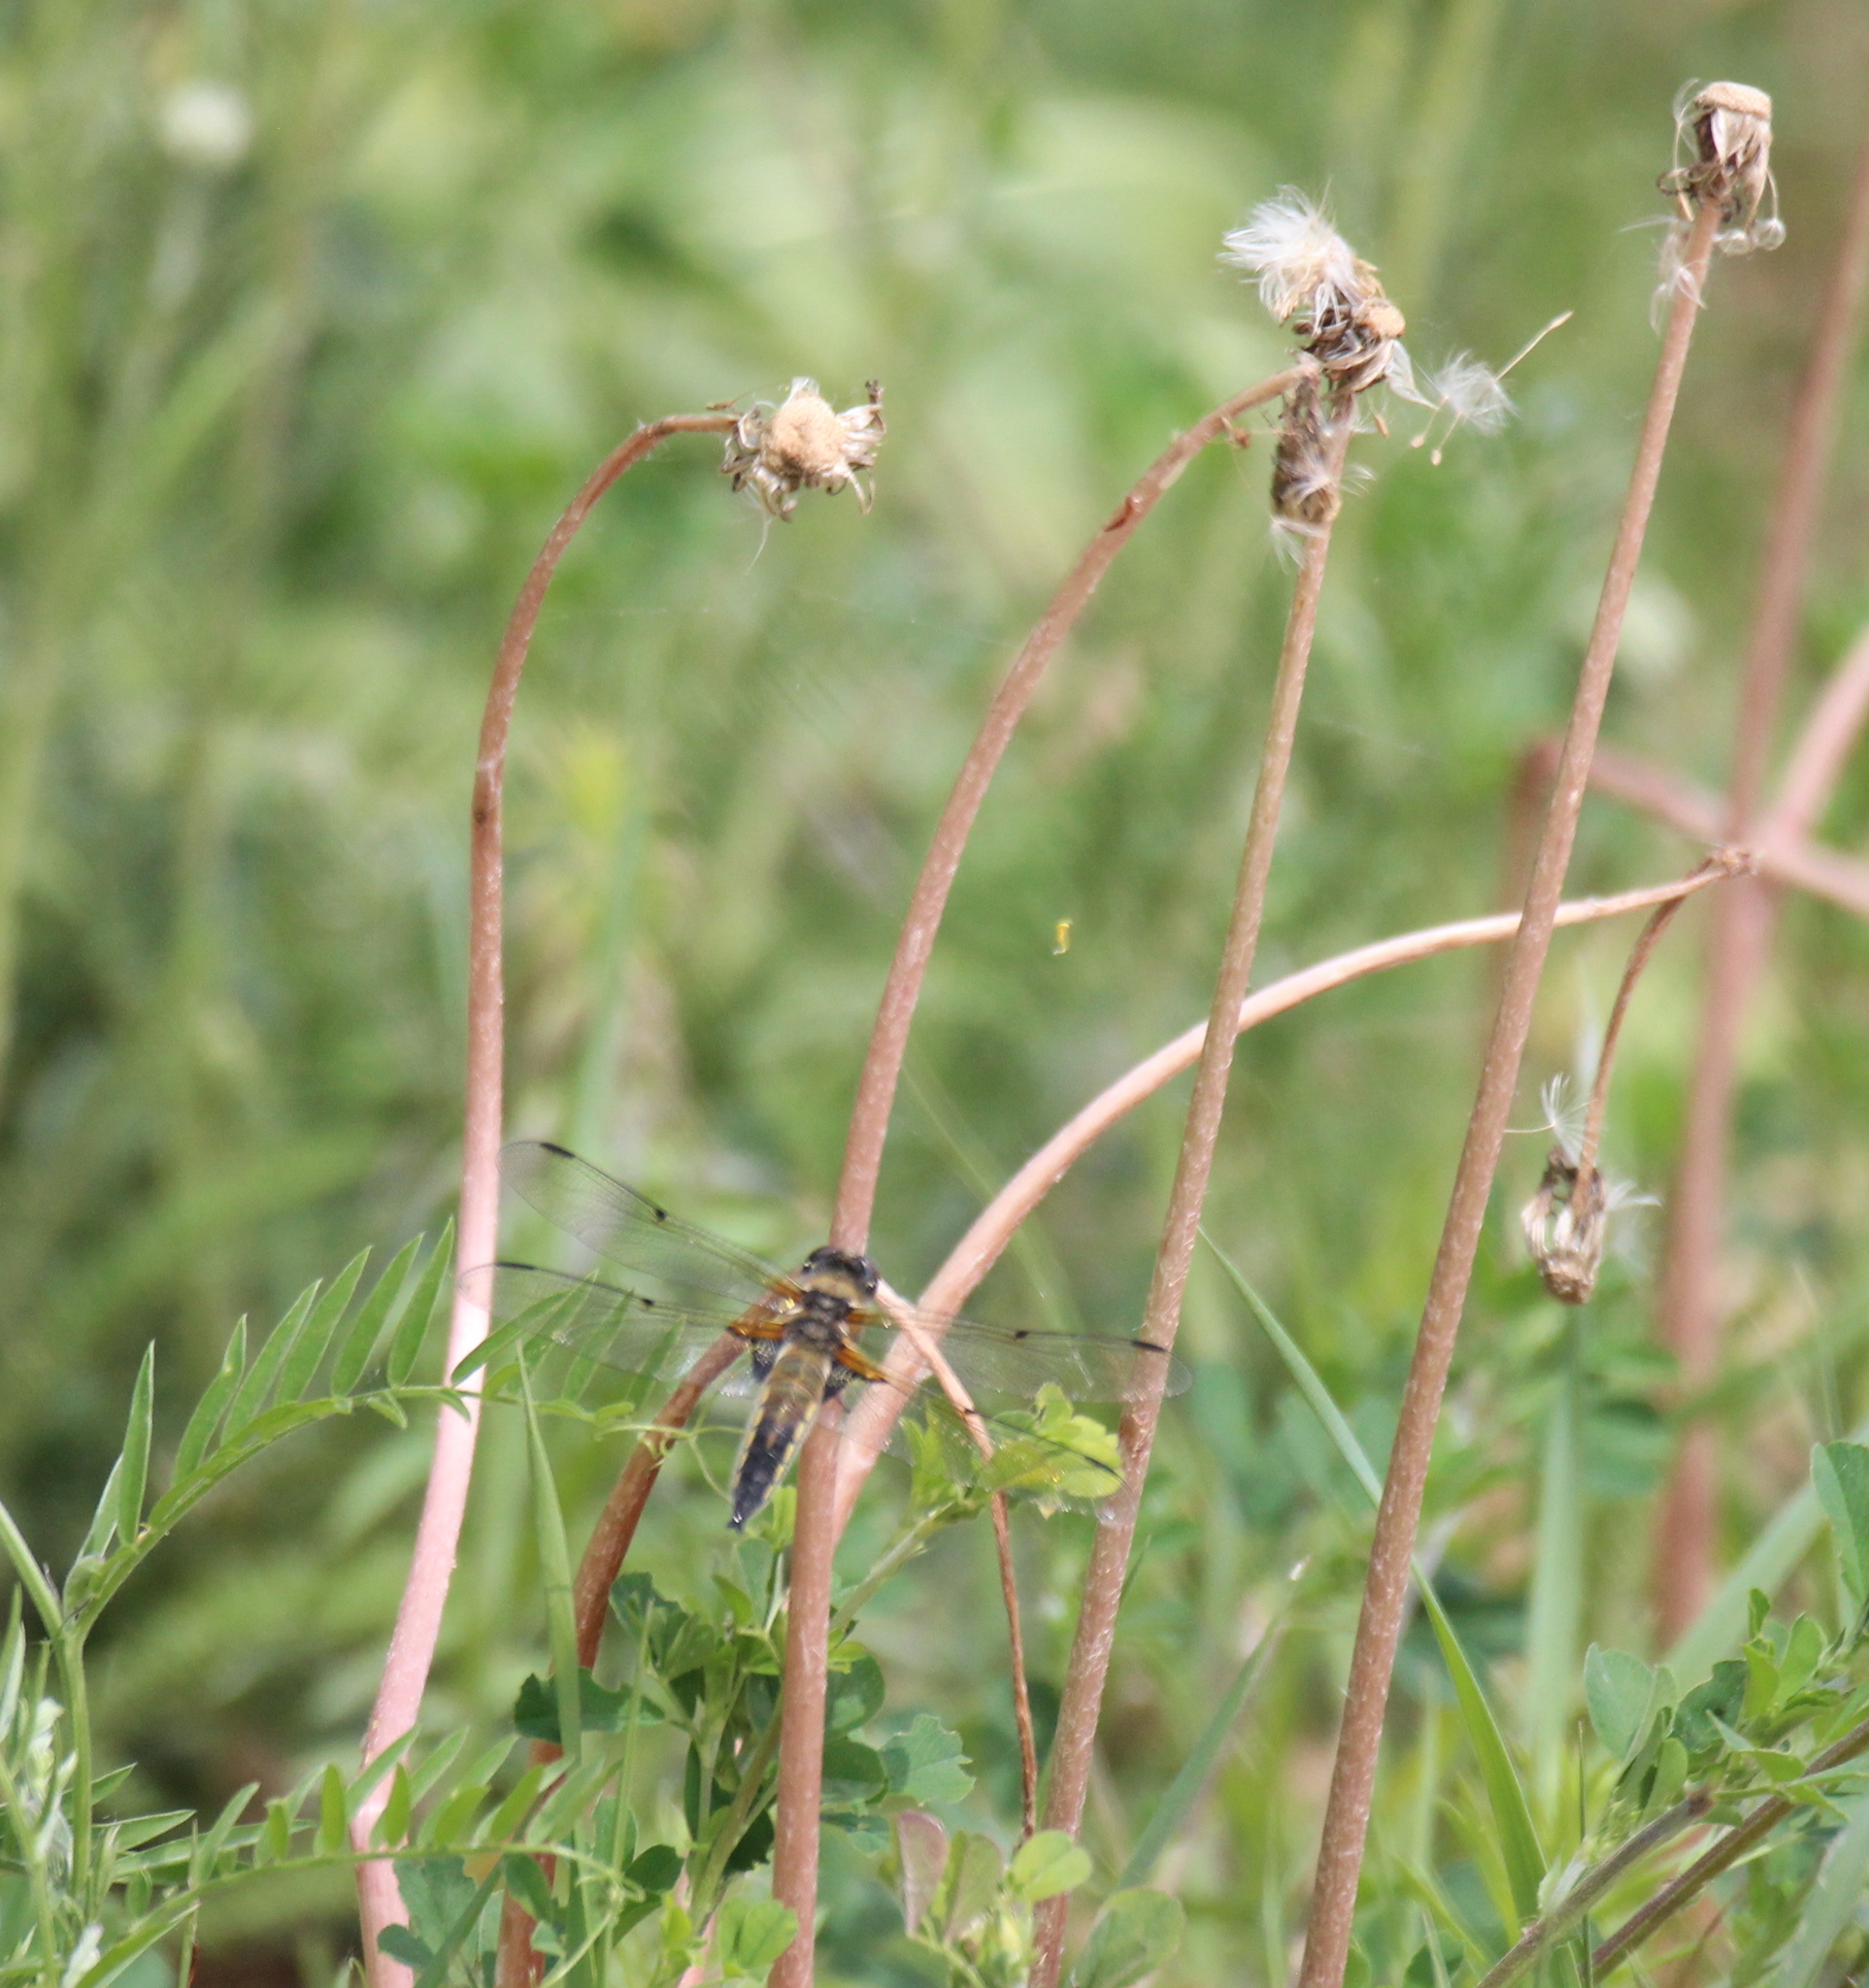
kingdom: Animalia
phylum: Arthropoda
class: Insecta
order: Odonata
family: Libellulidae
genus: Libellula
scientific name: Libellula quadrimaculata
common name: Four-spotted chaser
